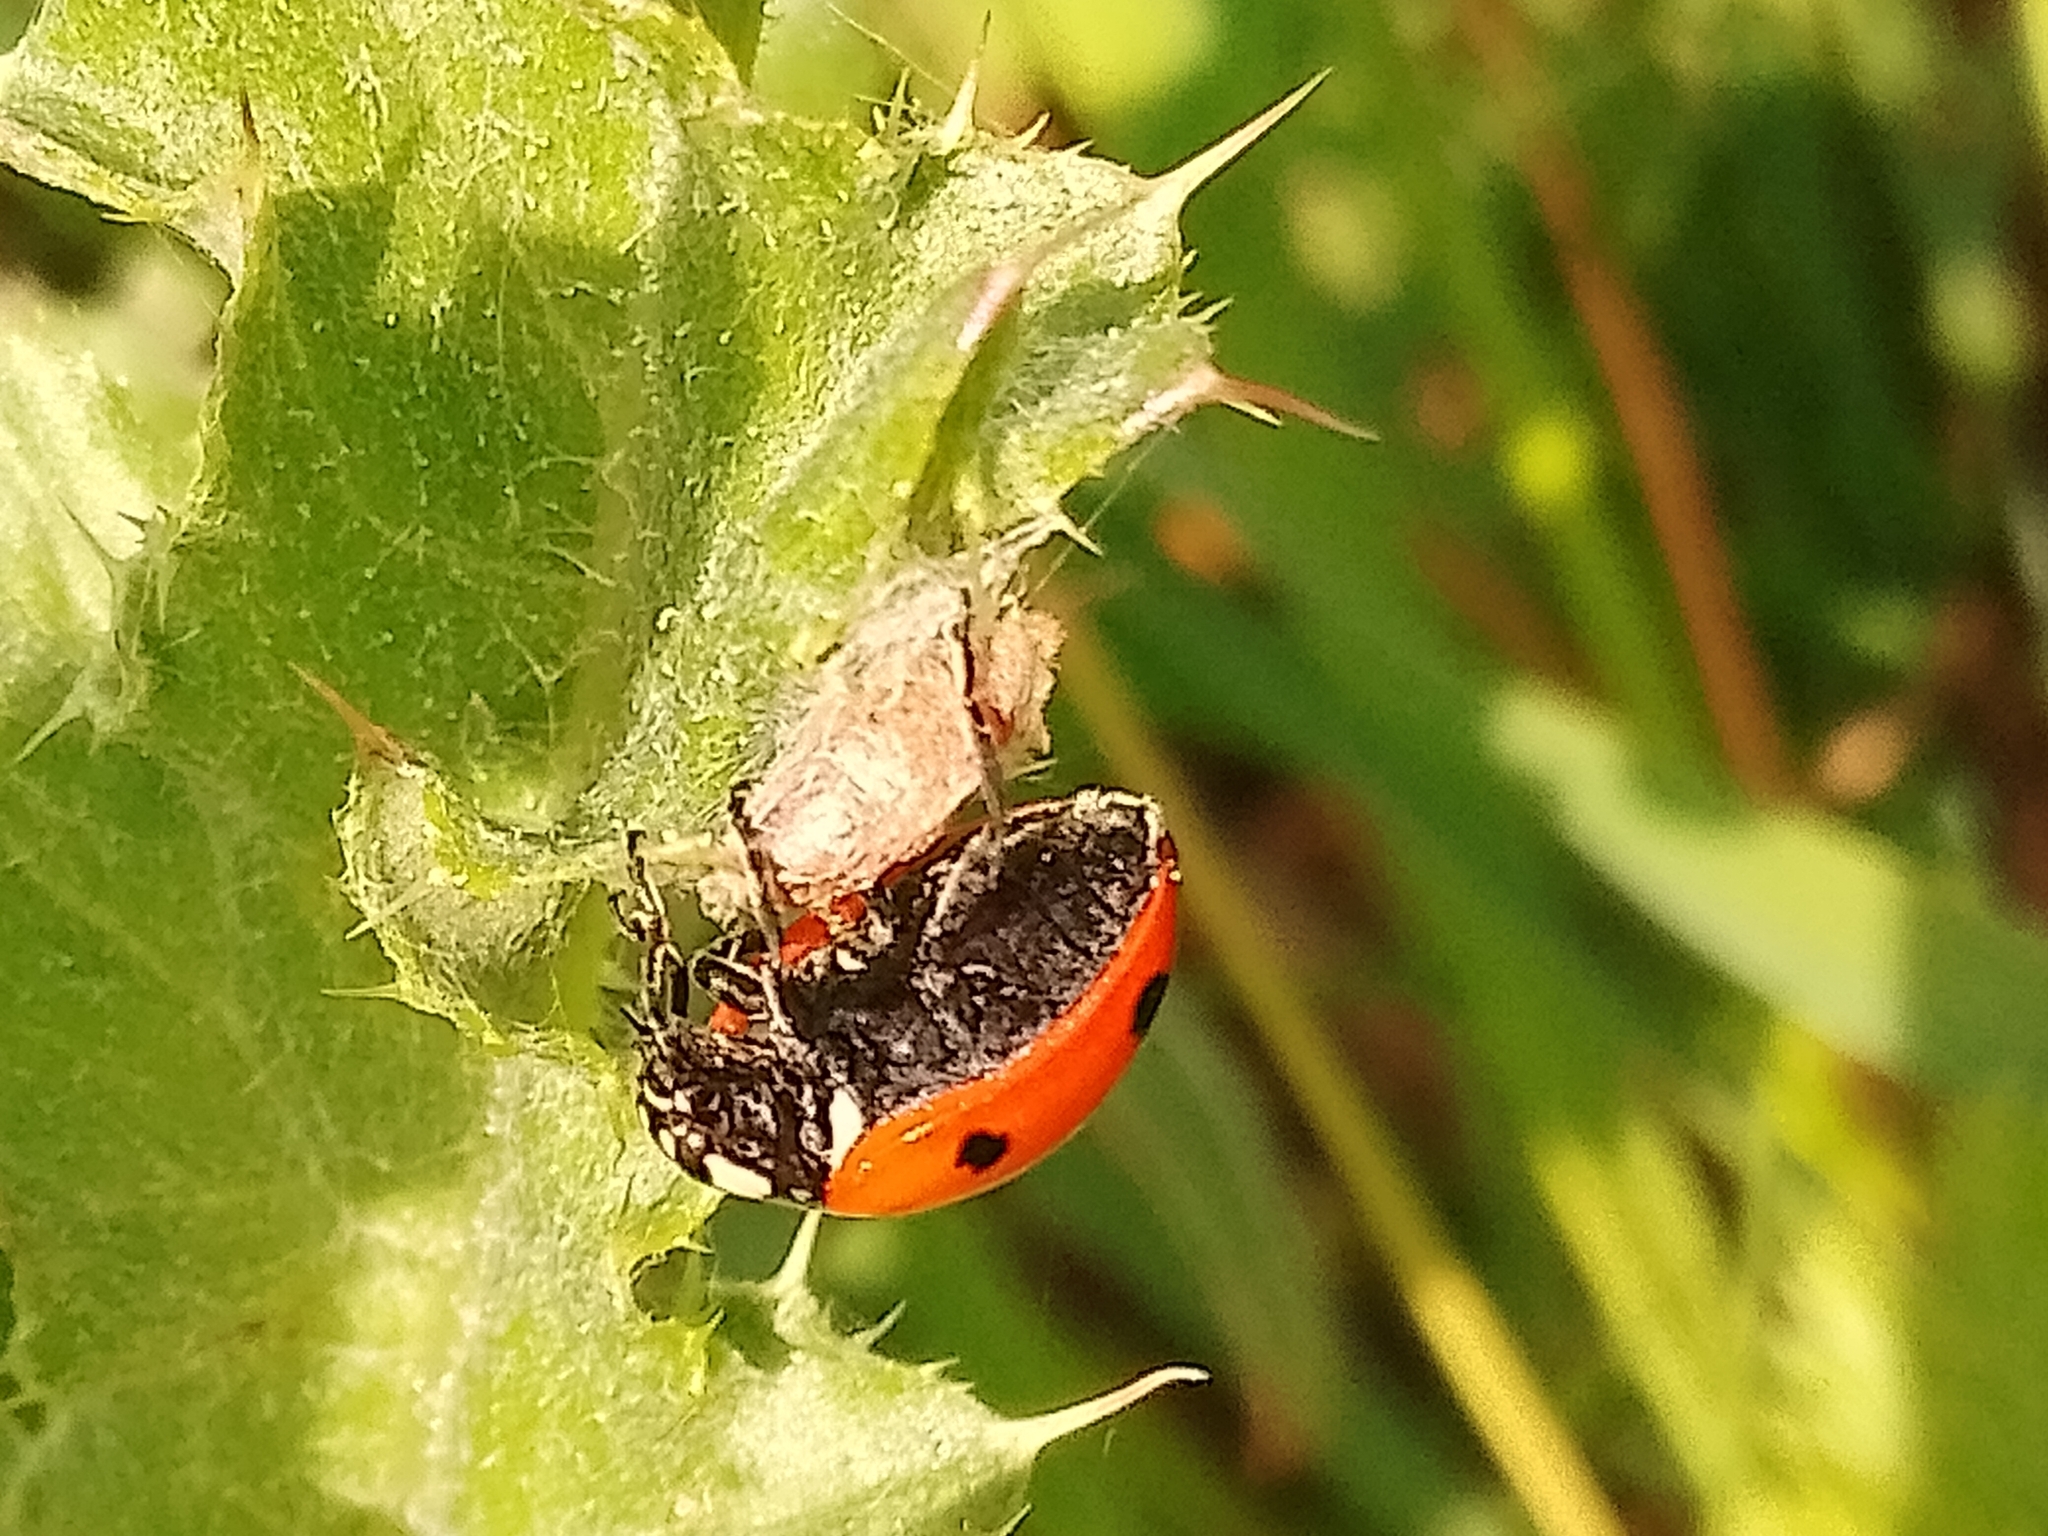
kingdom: Animalia
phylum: Arthropoda
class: Insecta
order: Hymenoptera
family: Braconidae
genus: Dinocampus
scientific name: Dinocampus coccinellae
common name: Braconid wasp
